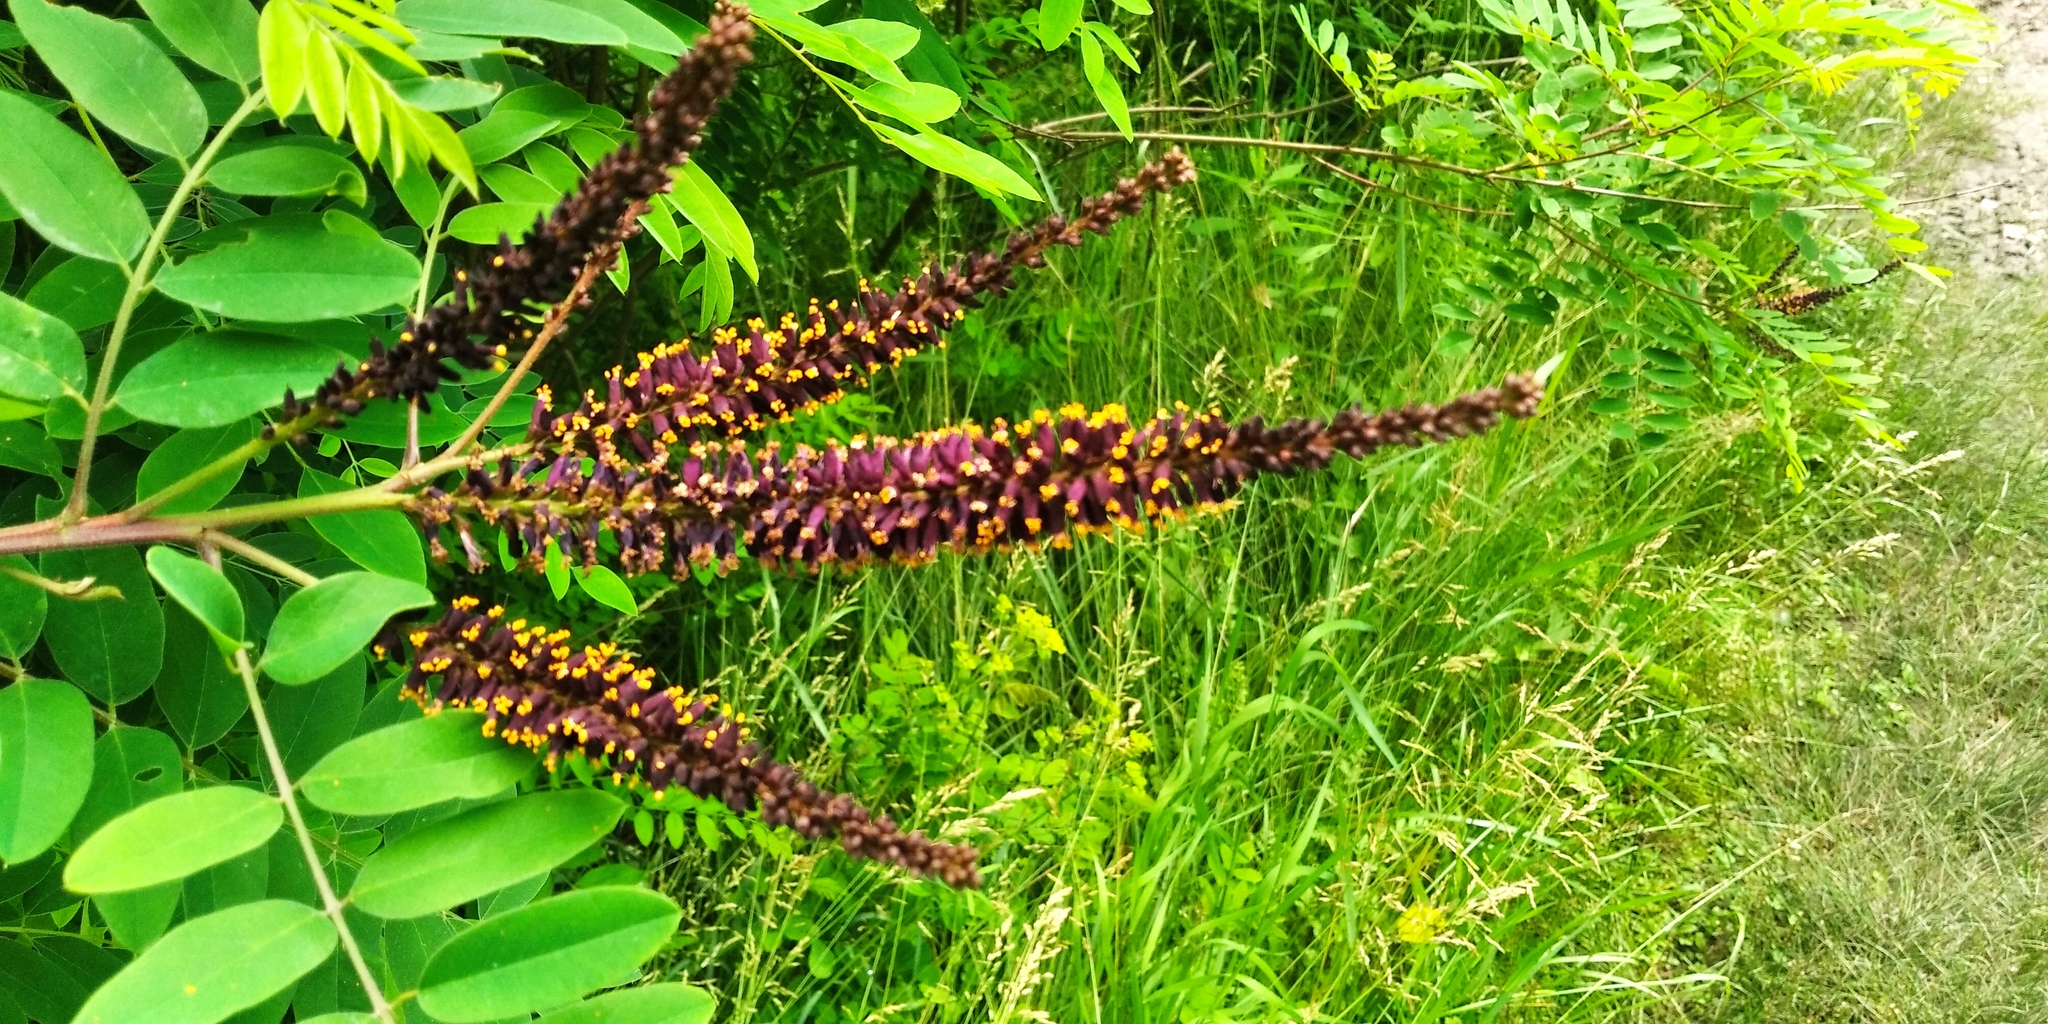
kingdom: Plantae
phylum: Tracheophyta
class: Magnoliopsida
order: Fabales
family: Fabaceae
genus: Amorpha
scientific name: Amorpha fruticosa
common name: False indigo
